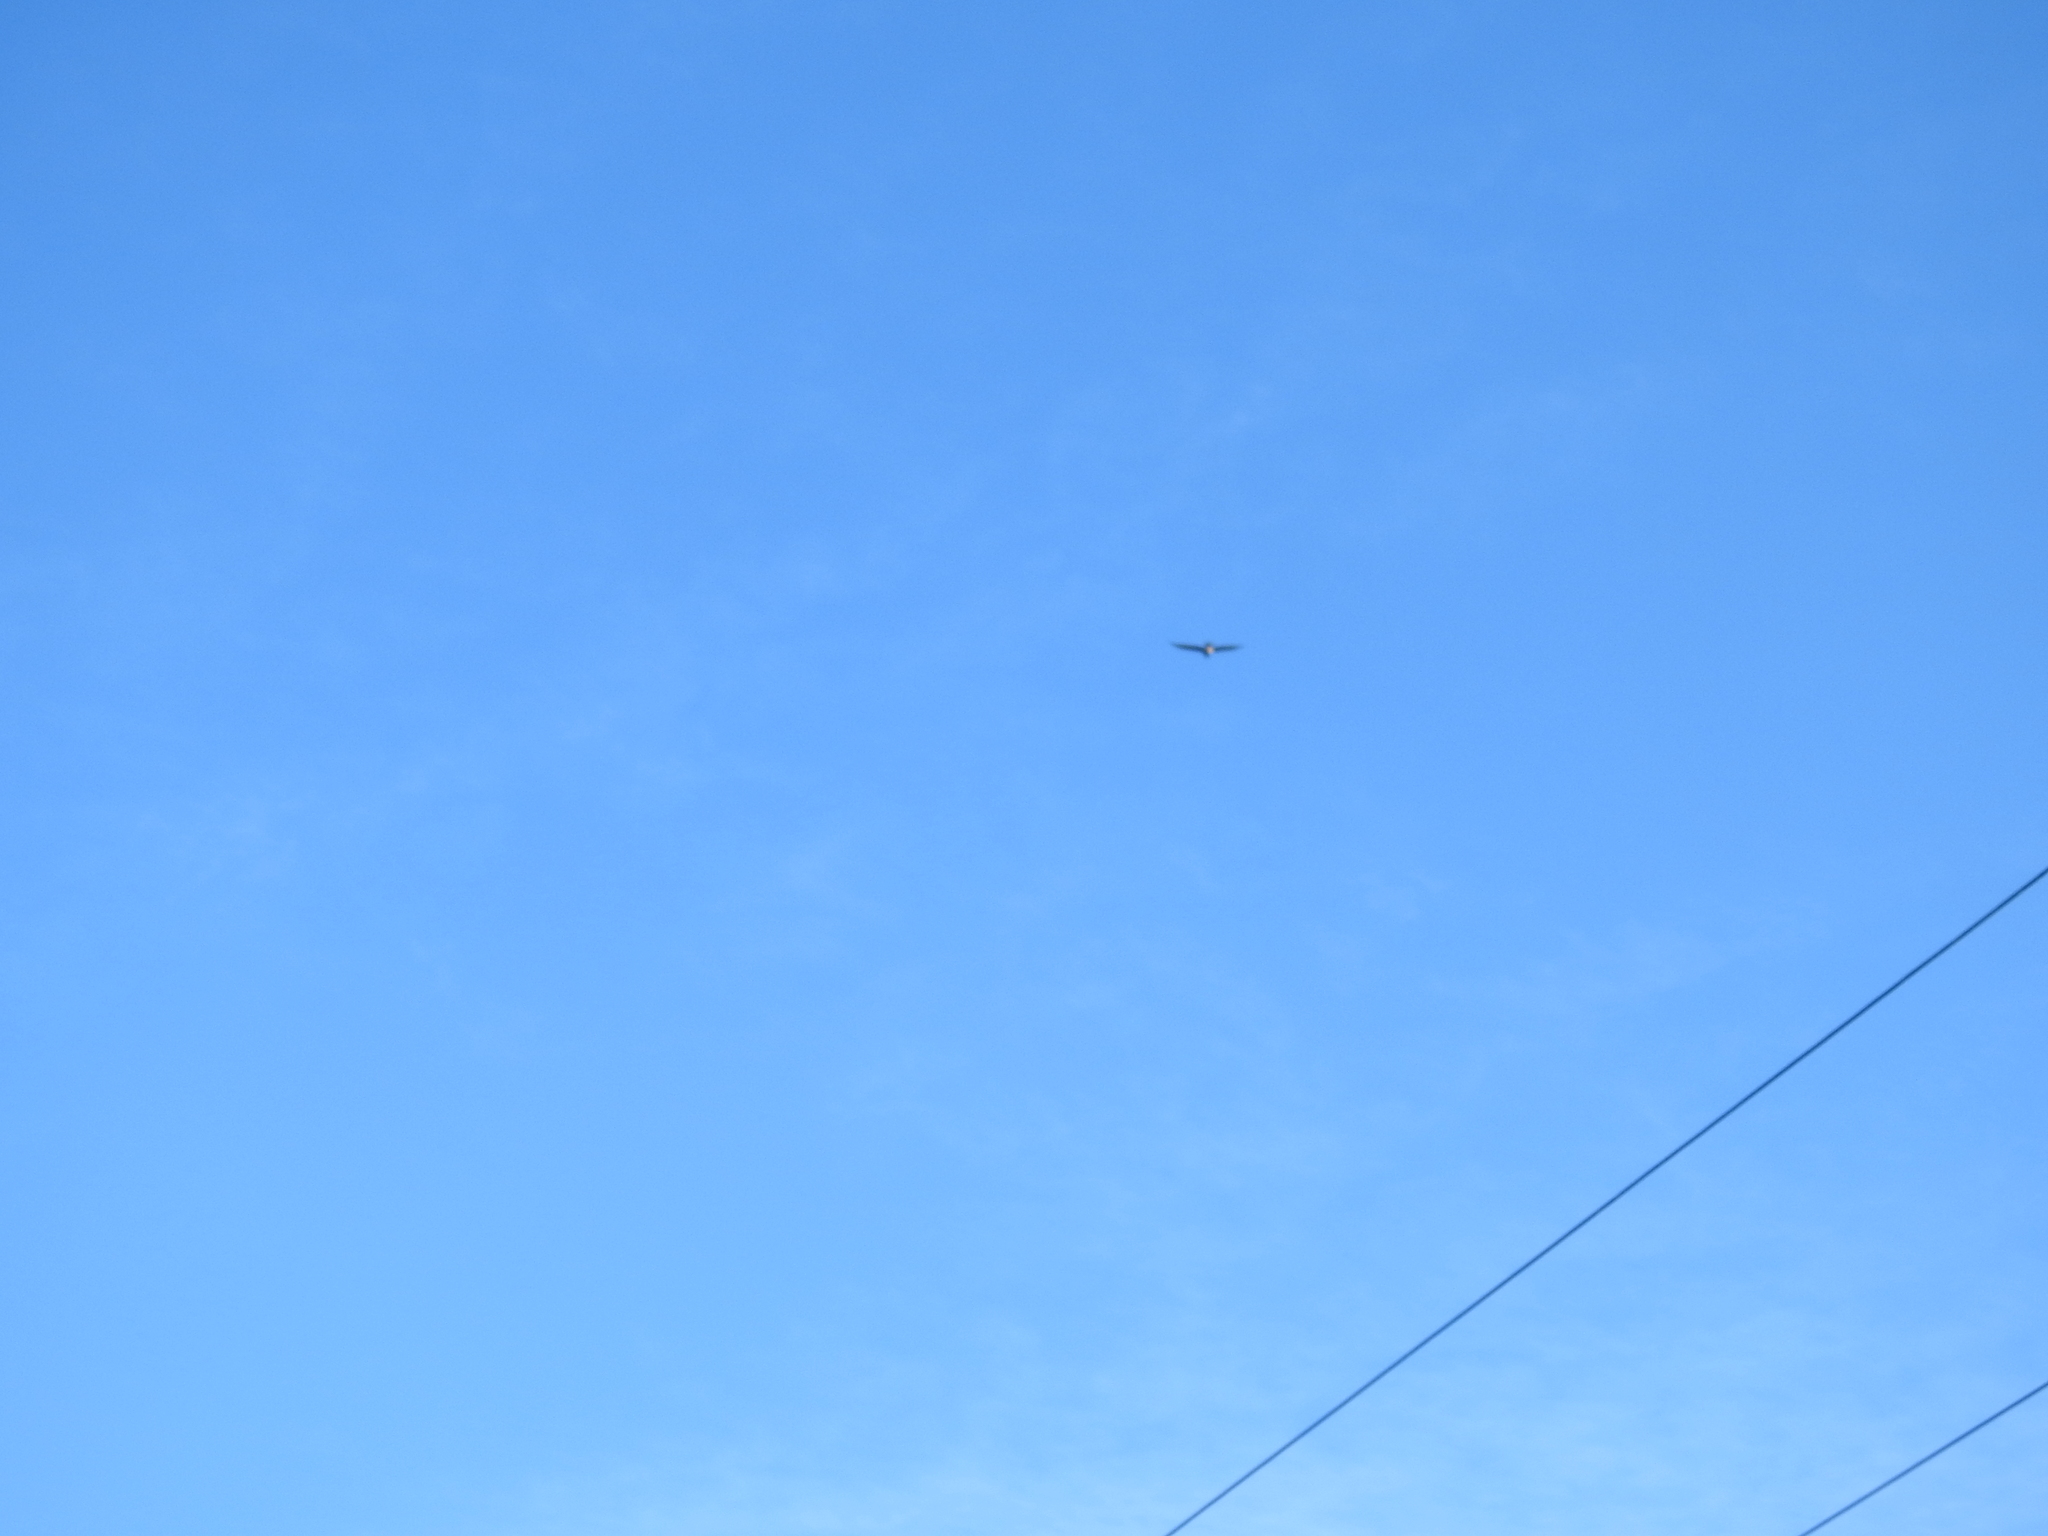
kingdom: Animalia
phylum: Chordata
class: Aves
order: Accipitriformes
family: Accipitridae
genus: Circus
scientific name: Circus approximans
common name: Swamp harrier
